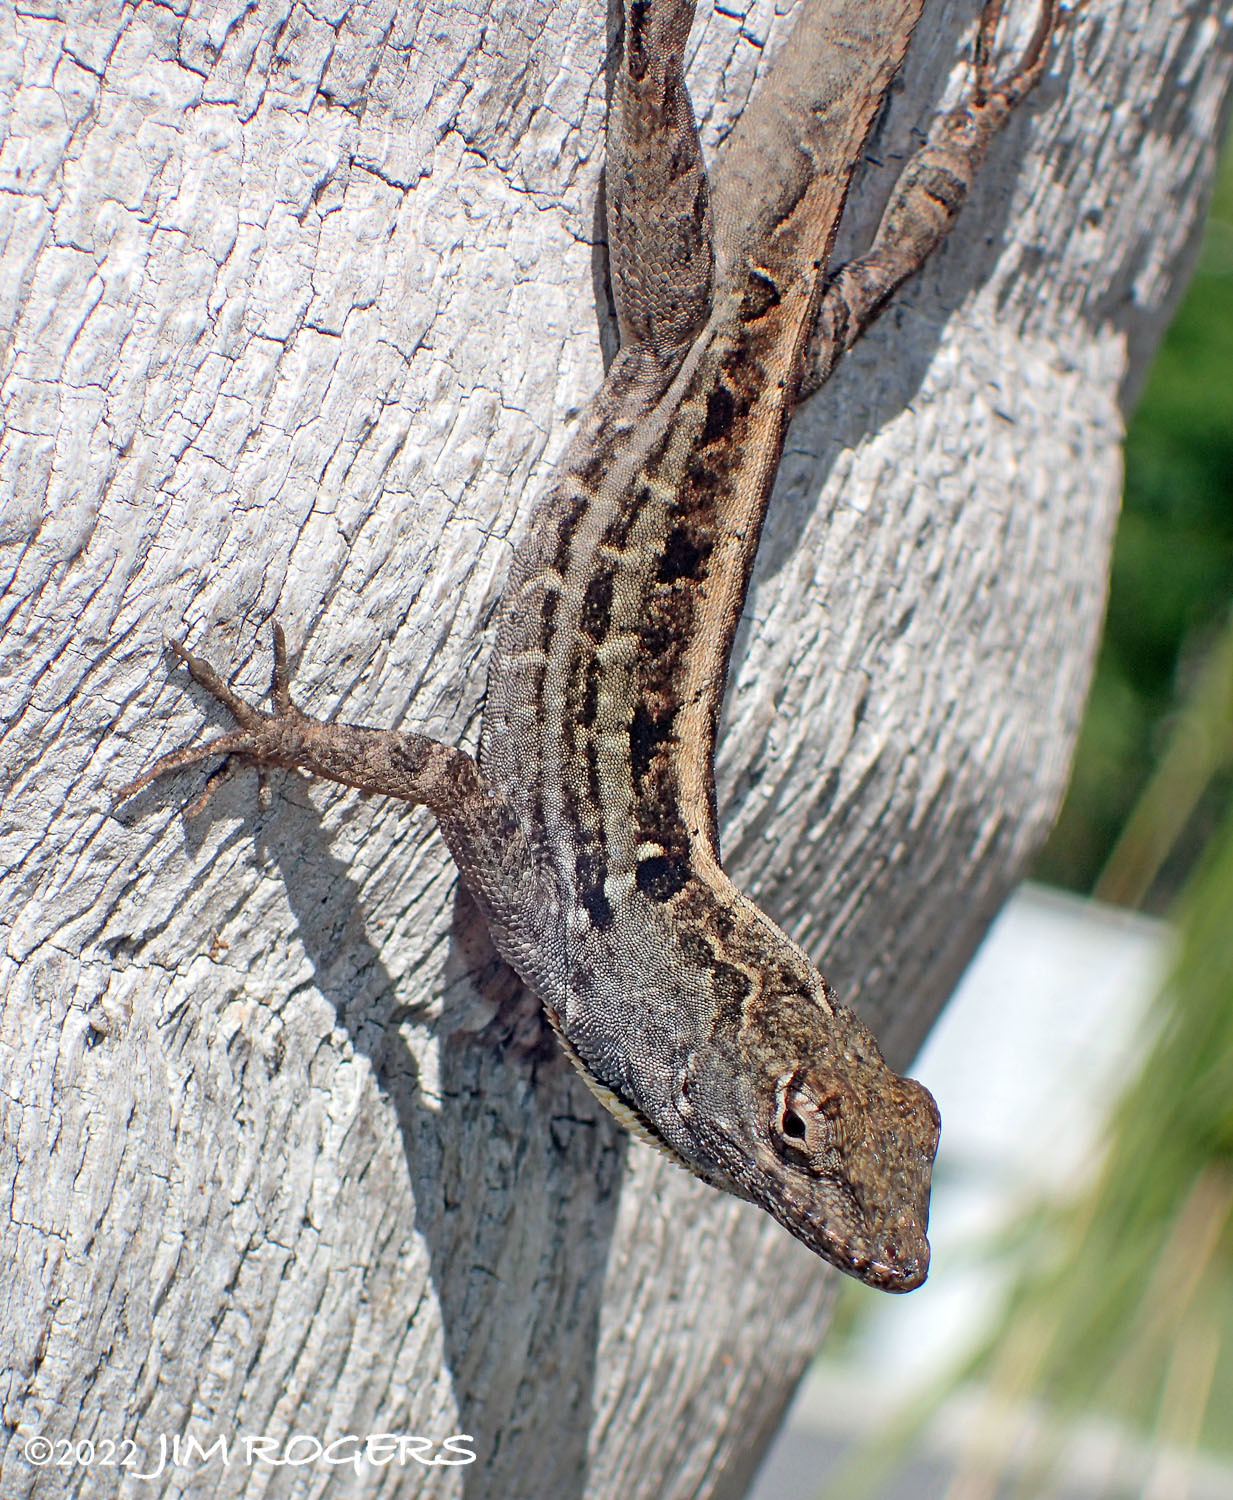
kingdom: Animalia
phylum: Chordata
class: Squamata
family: Dactyloidae
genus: Anolis
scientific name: Anolis sagrei
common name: Brown anole
